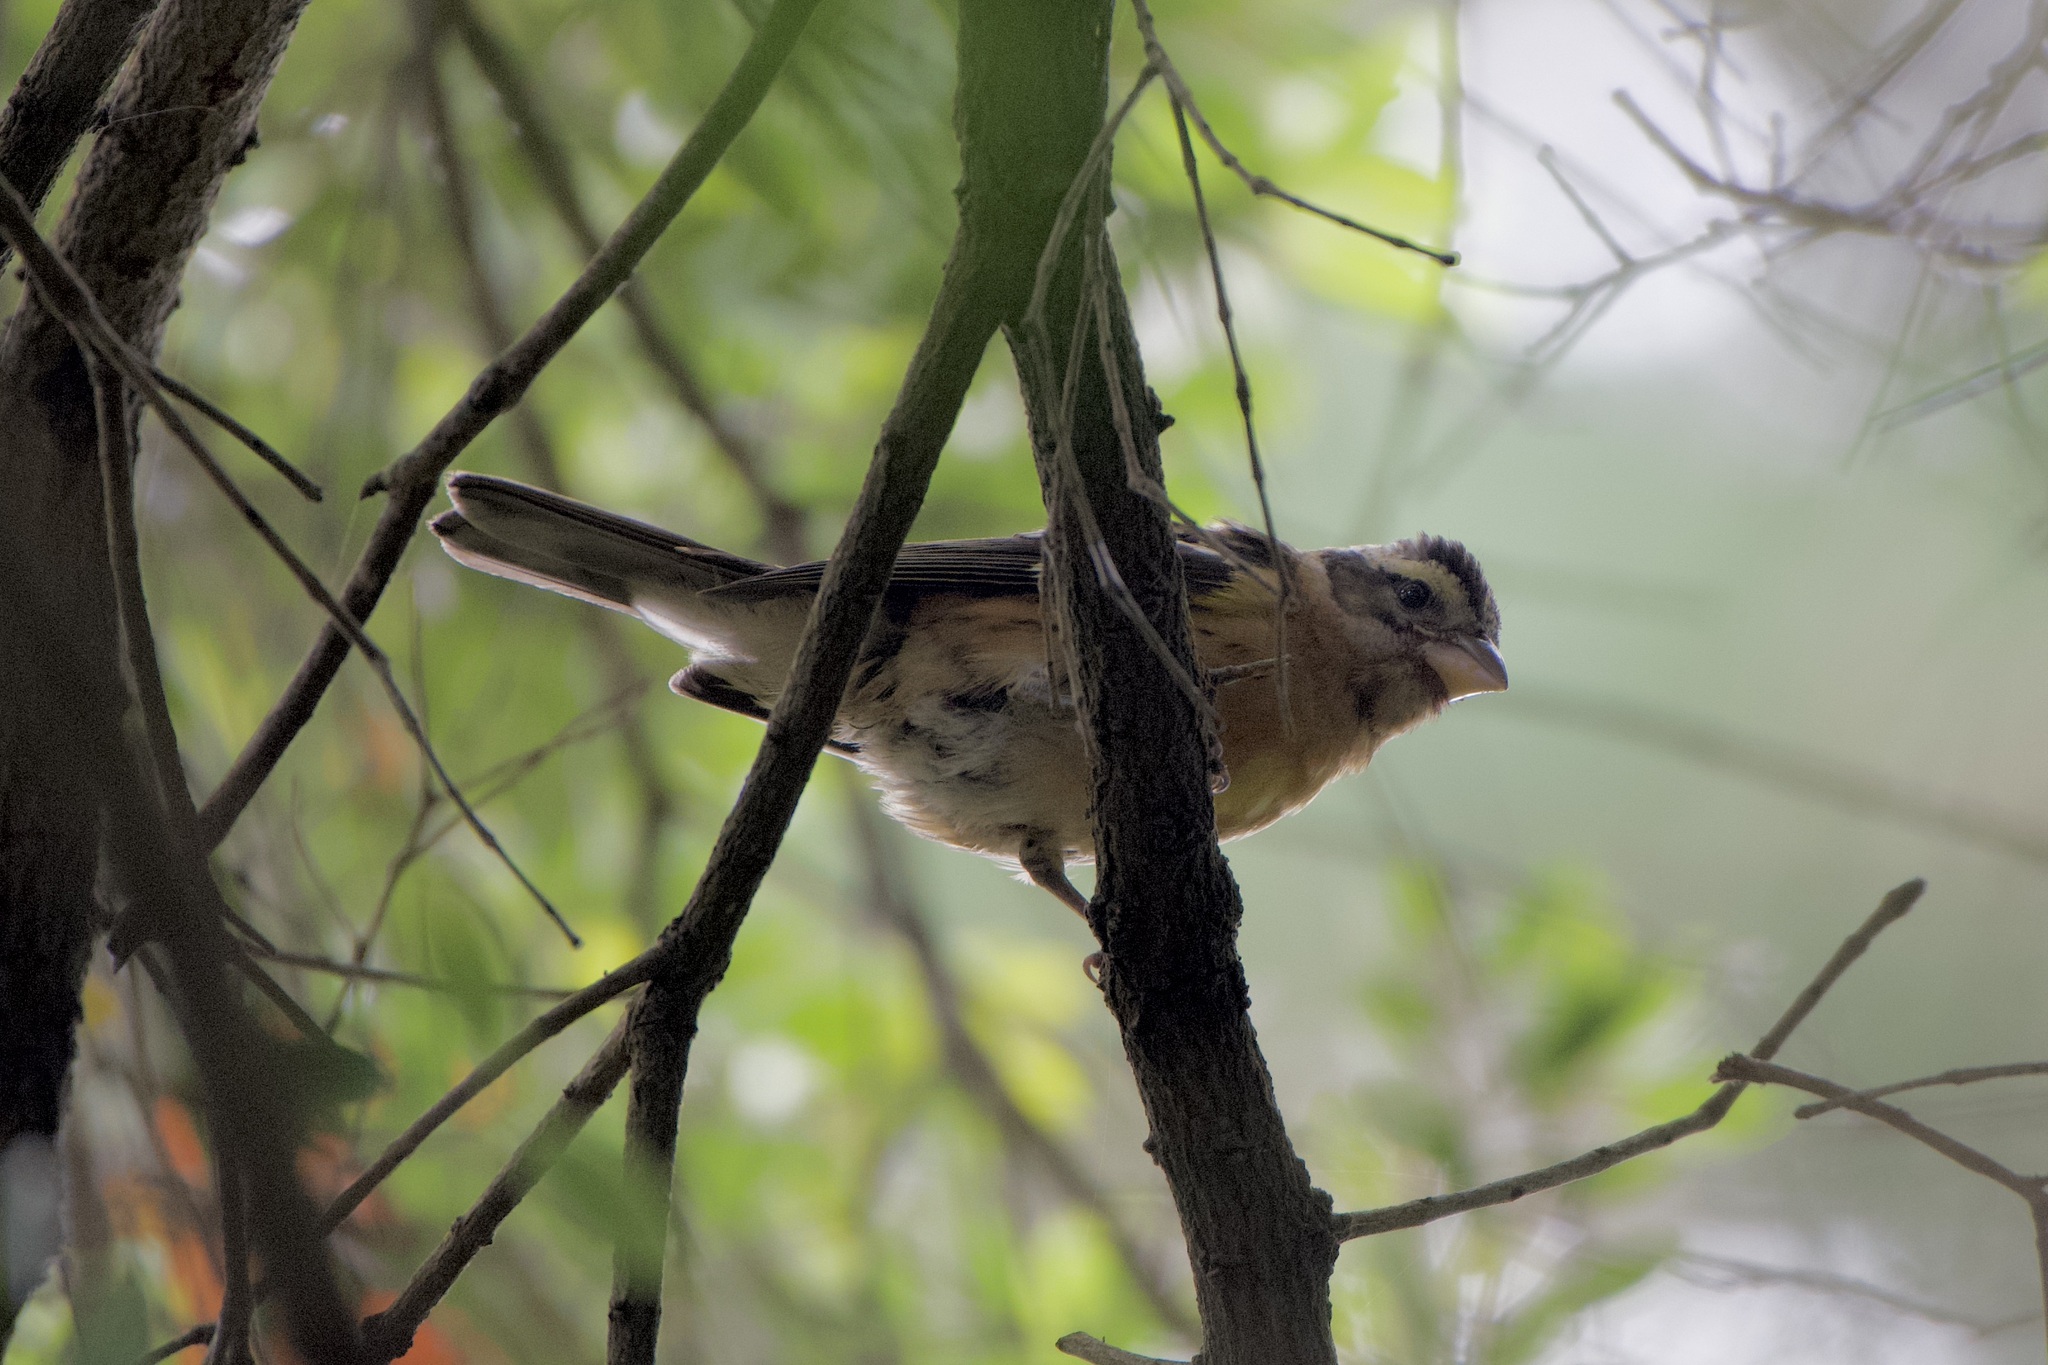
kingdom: Animalia
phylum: Chordata
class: Aves
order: Passeriformes
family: Cardinalidae
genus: Pheucticus
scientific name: Pheucticus melanocephalus
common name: Black-headed grosbeak
